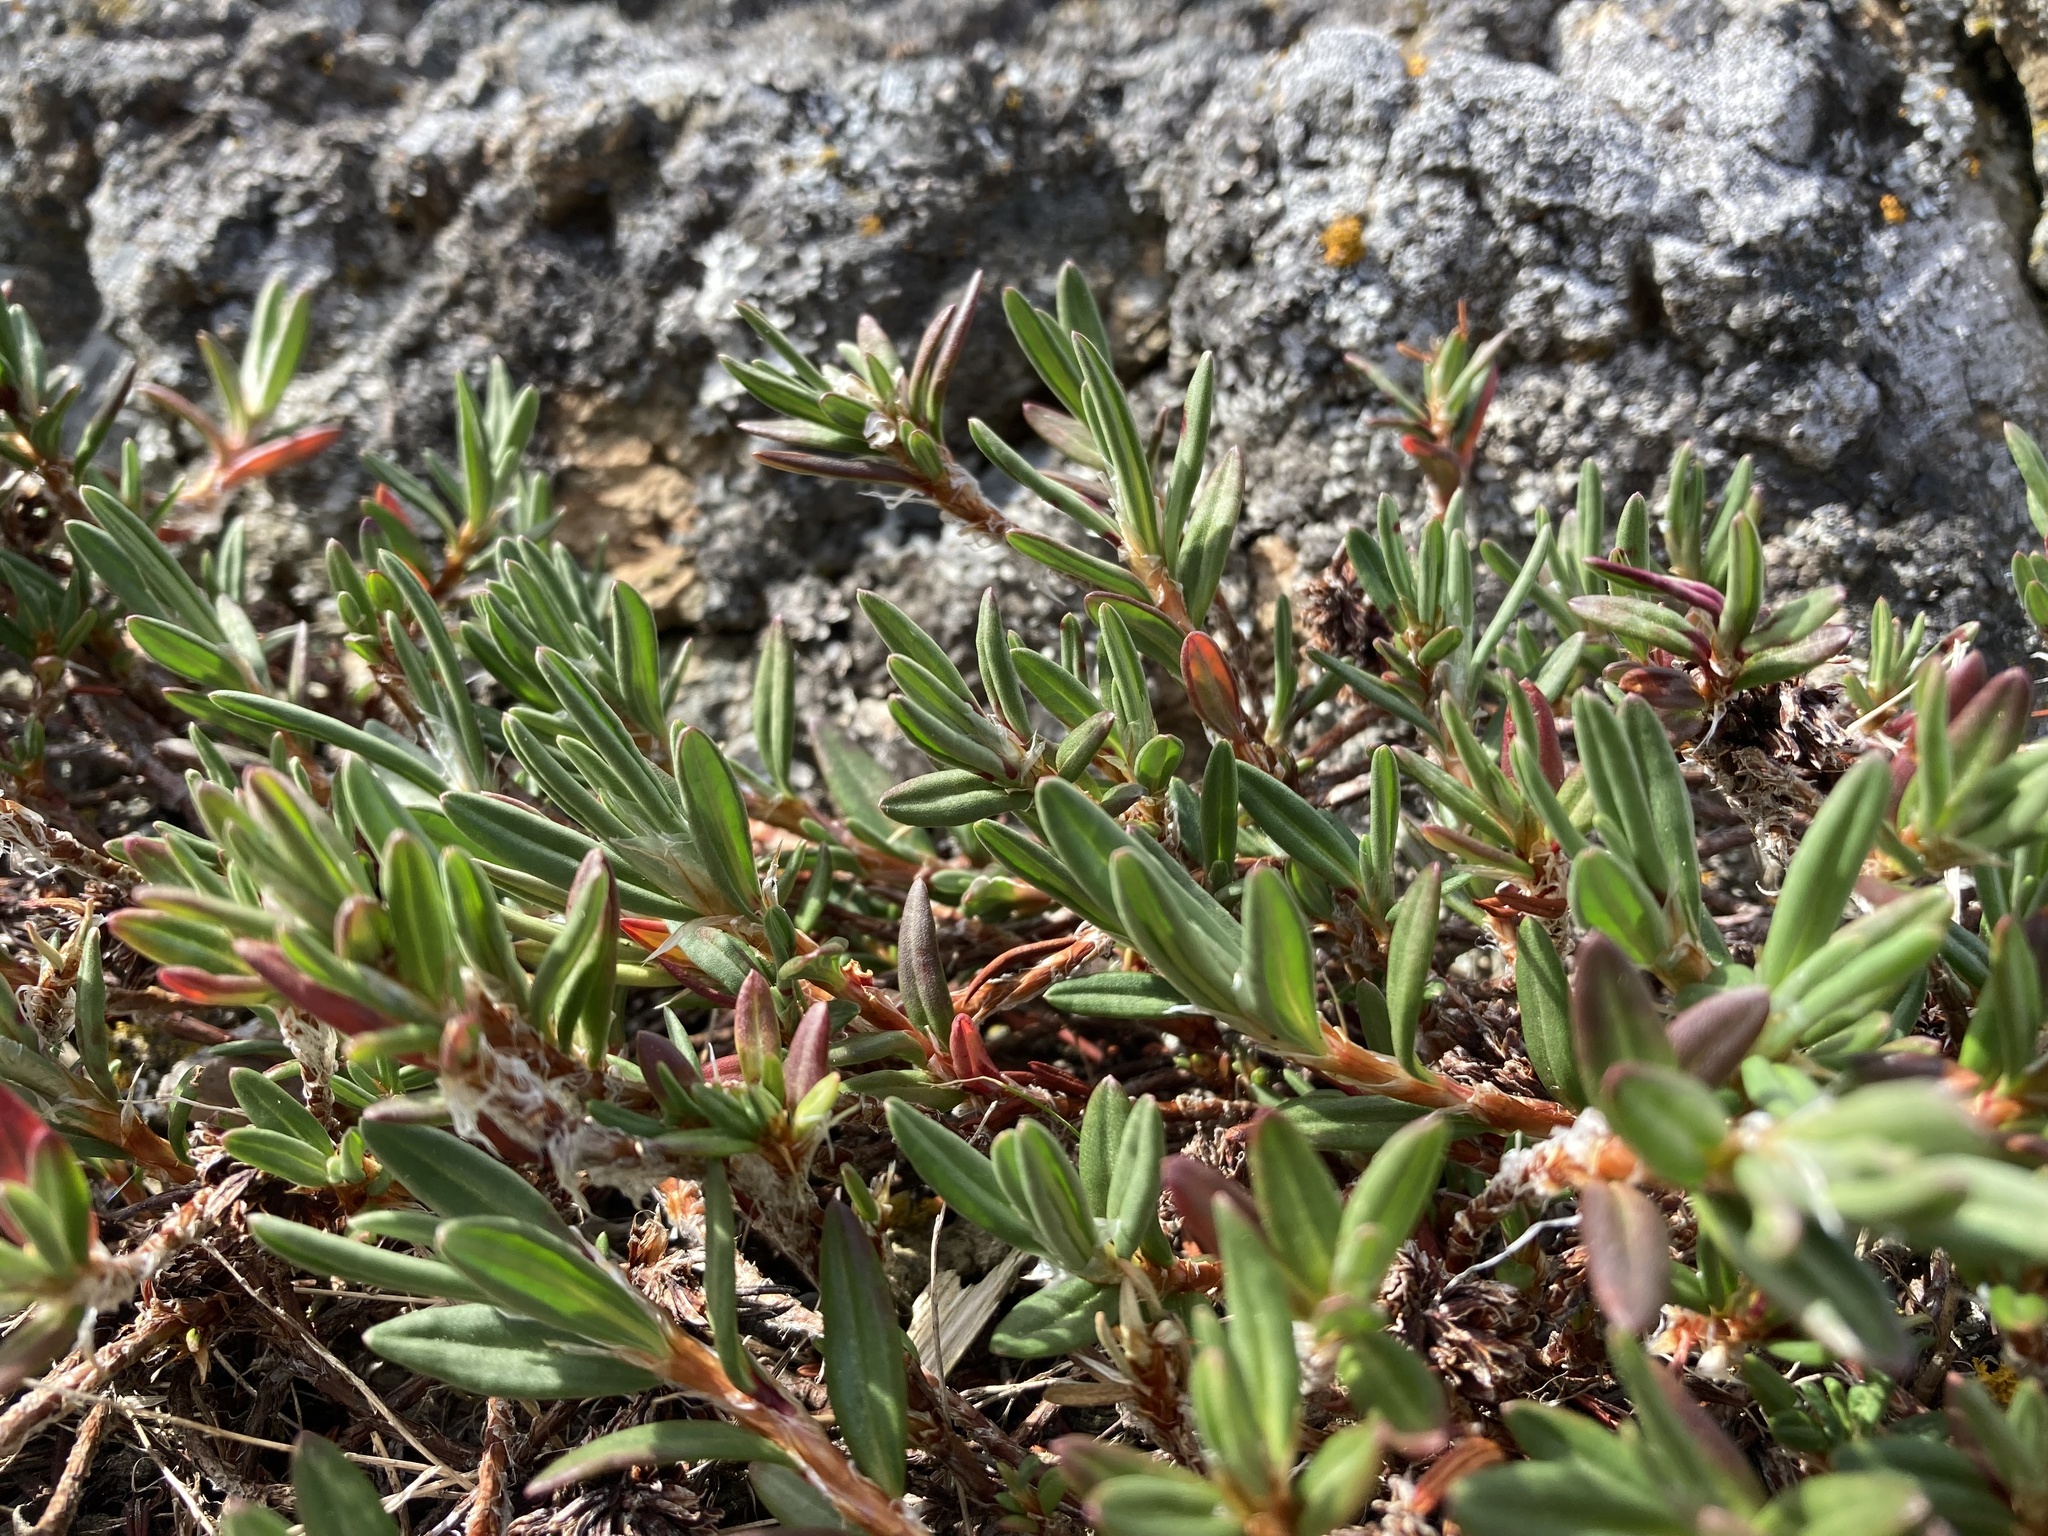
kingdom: Plantae
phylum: Tracheophyta
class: Magnoliopsida
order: Caryophyllales
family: Polygonaceae
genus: Polygonum
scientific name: Polygonum paronychia
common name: Dune knotweed
